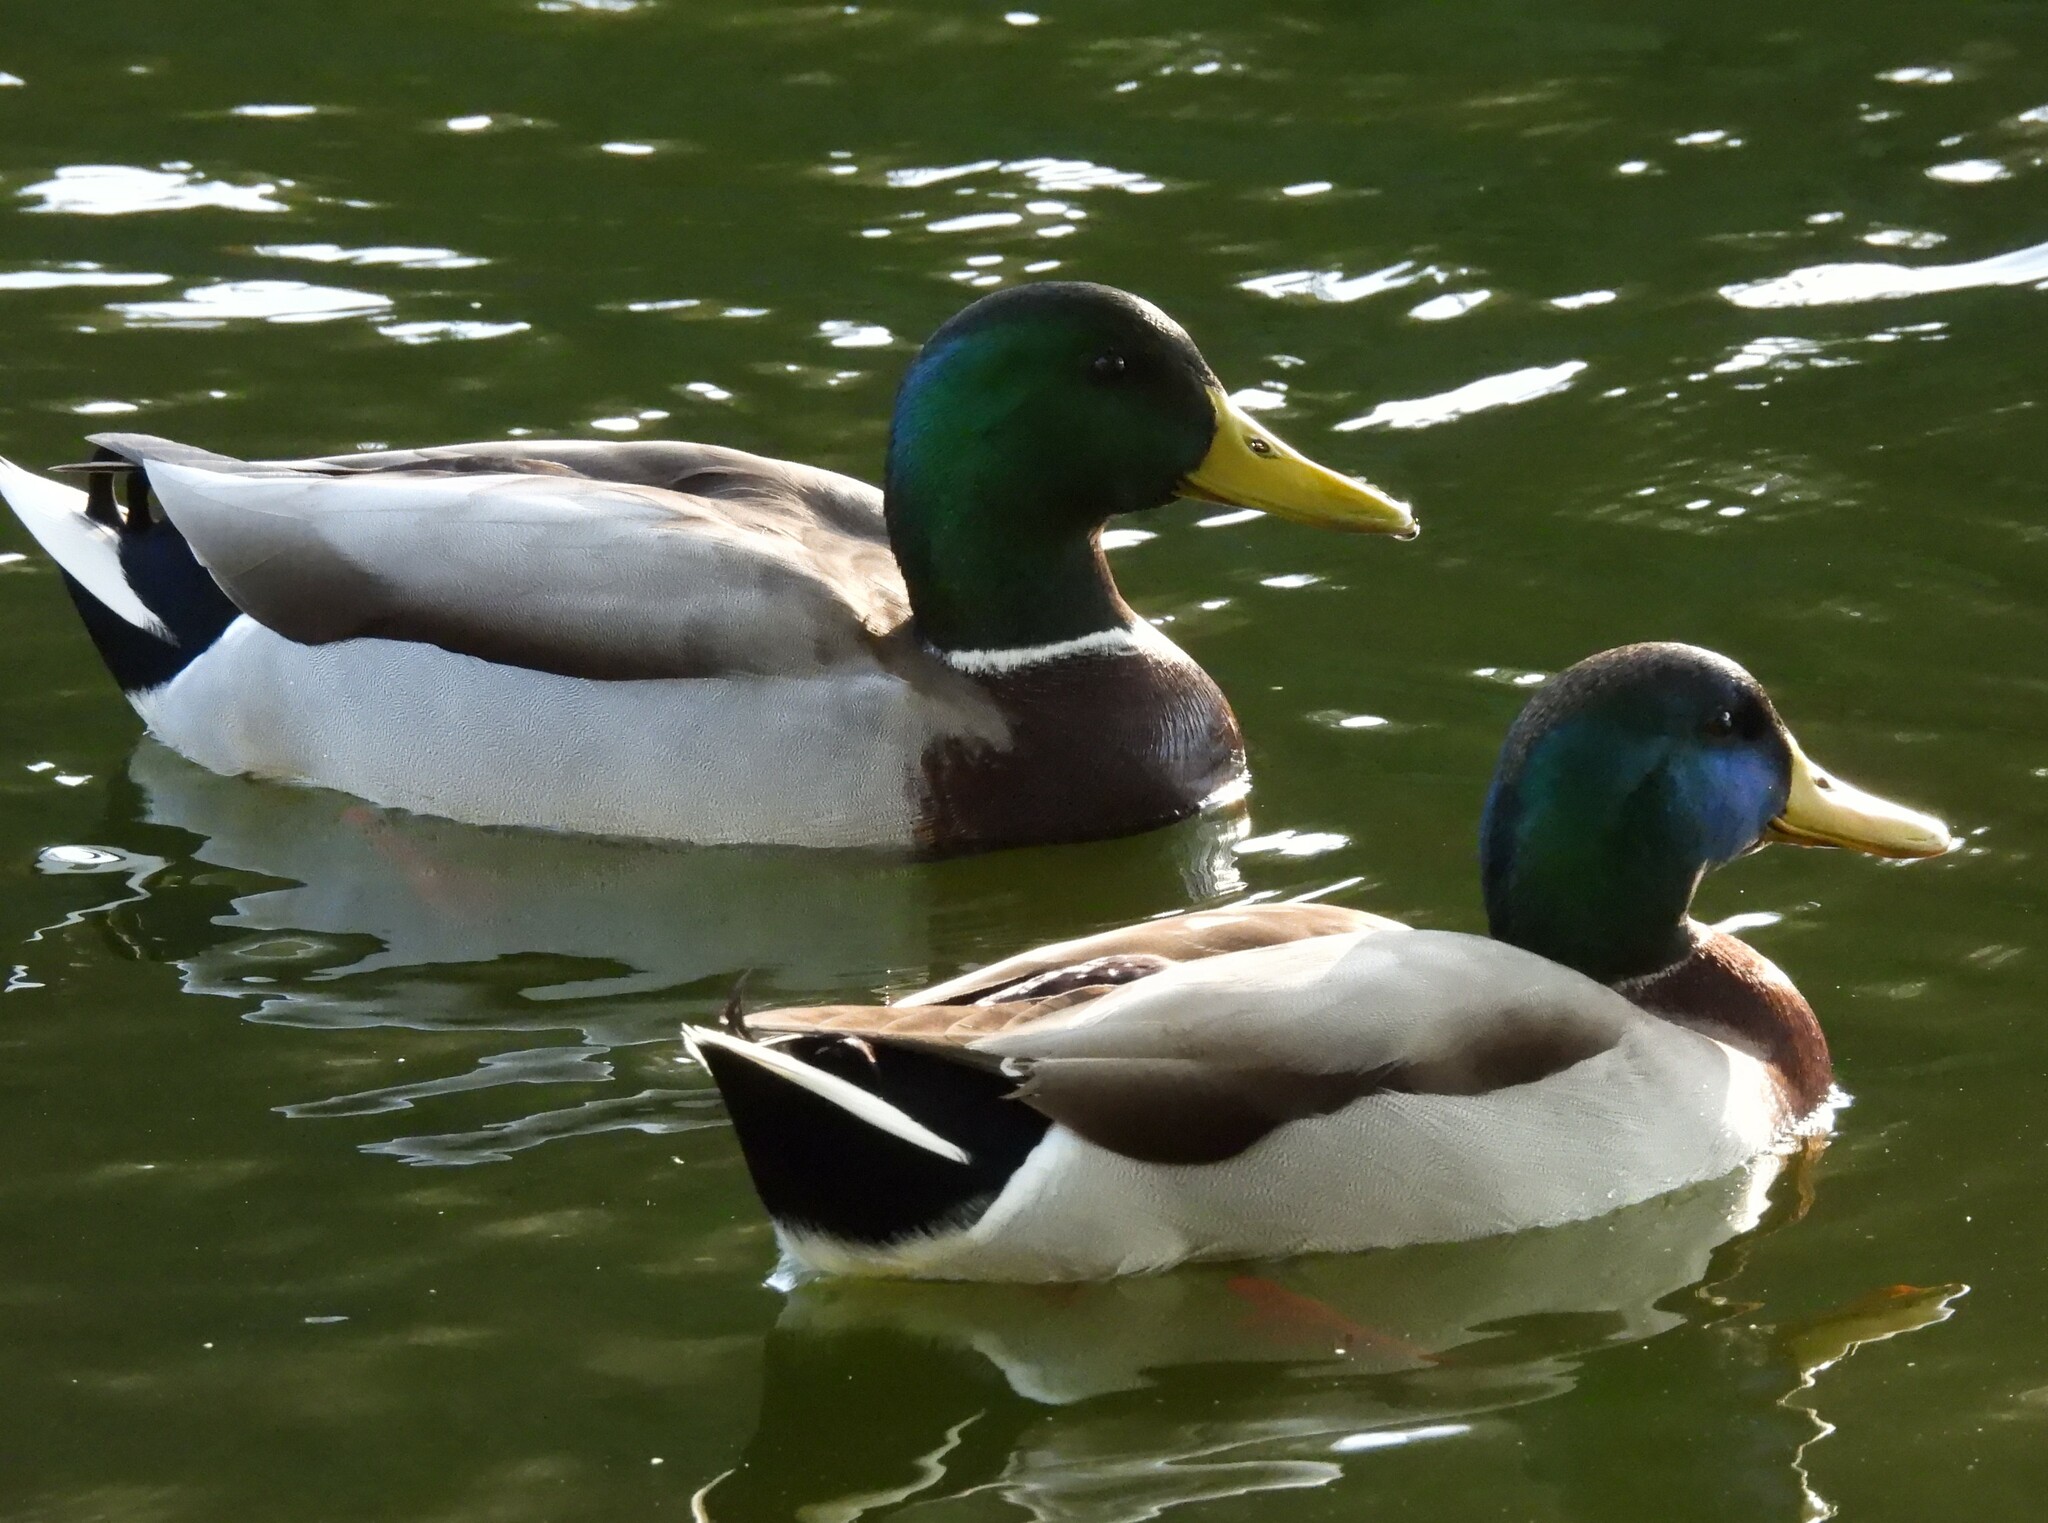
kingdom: Animalia
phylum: Chordata
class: Aves
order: Anseriformes
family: Anatidae
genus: Anas
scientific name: Anas platyrhynchos
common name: Mallard
